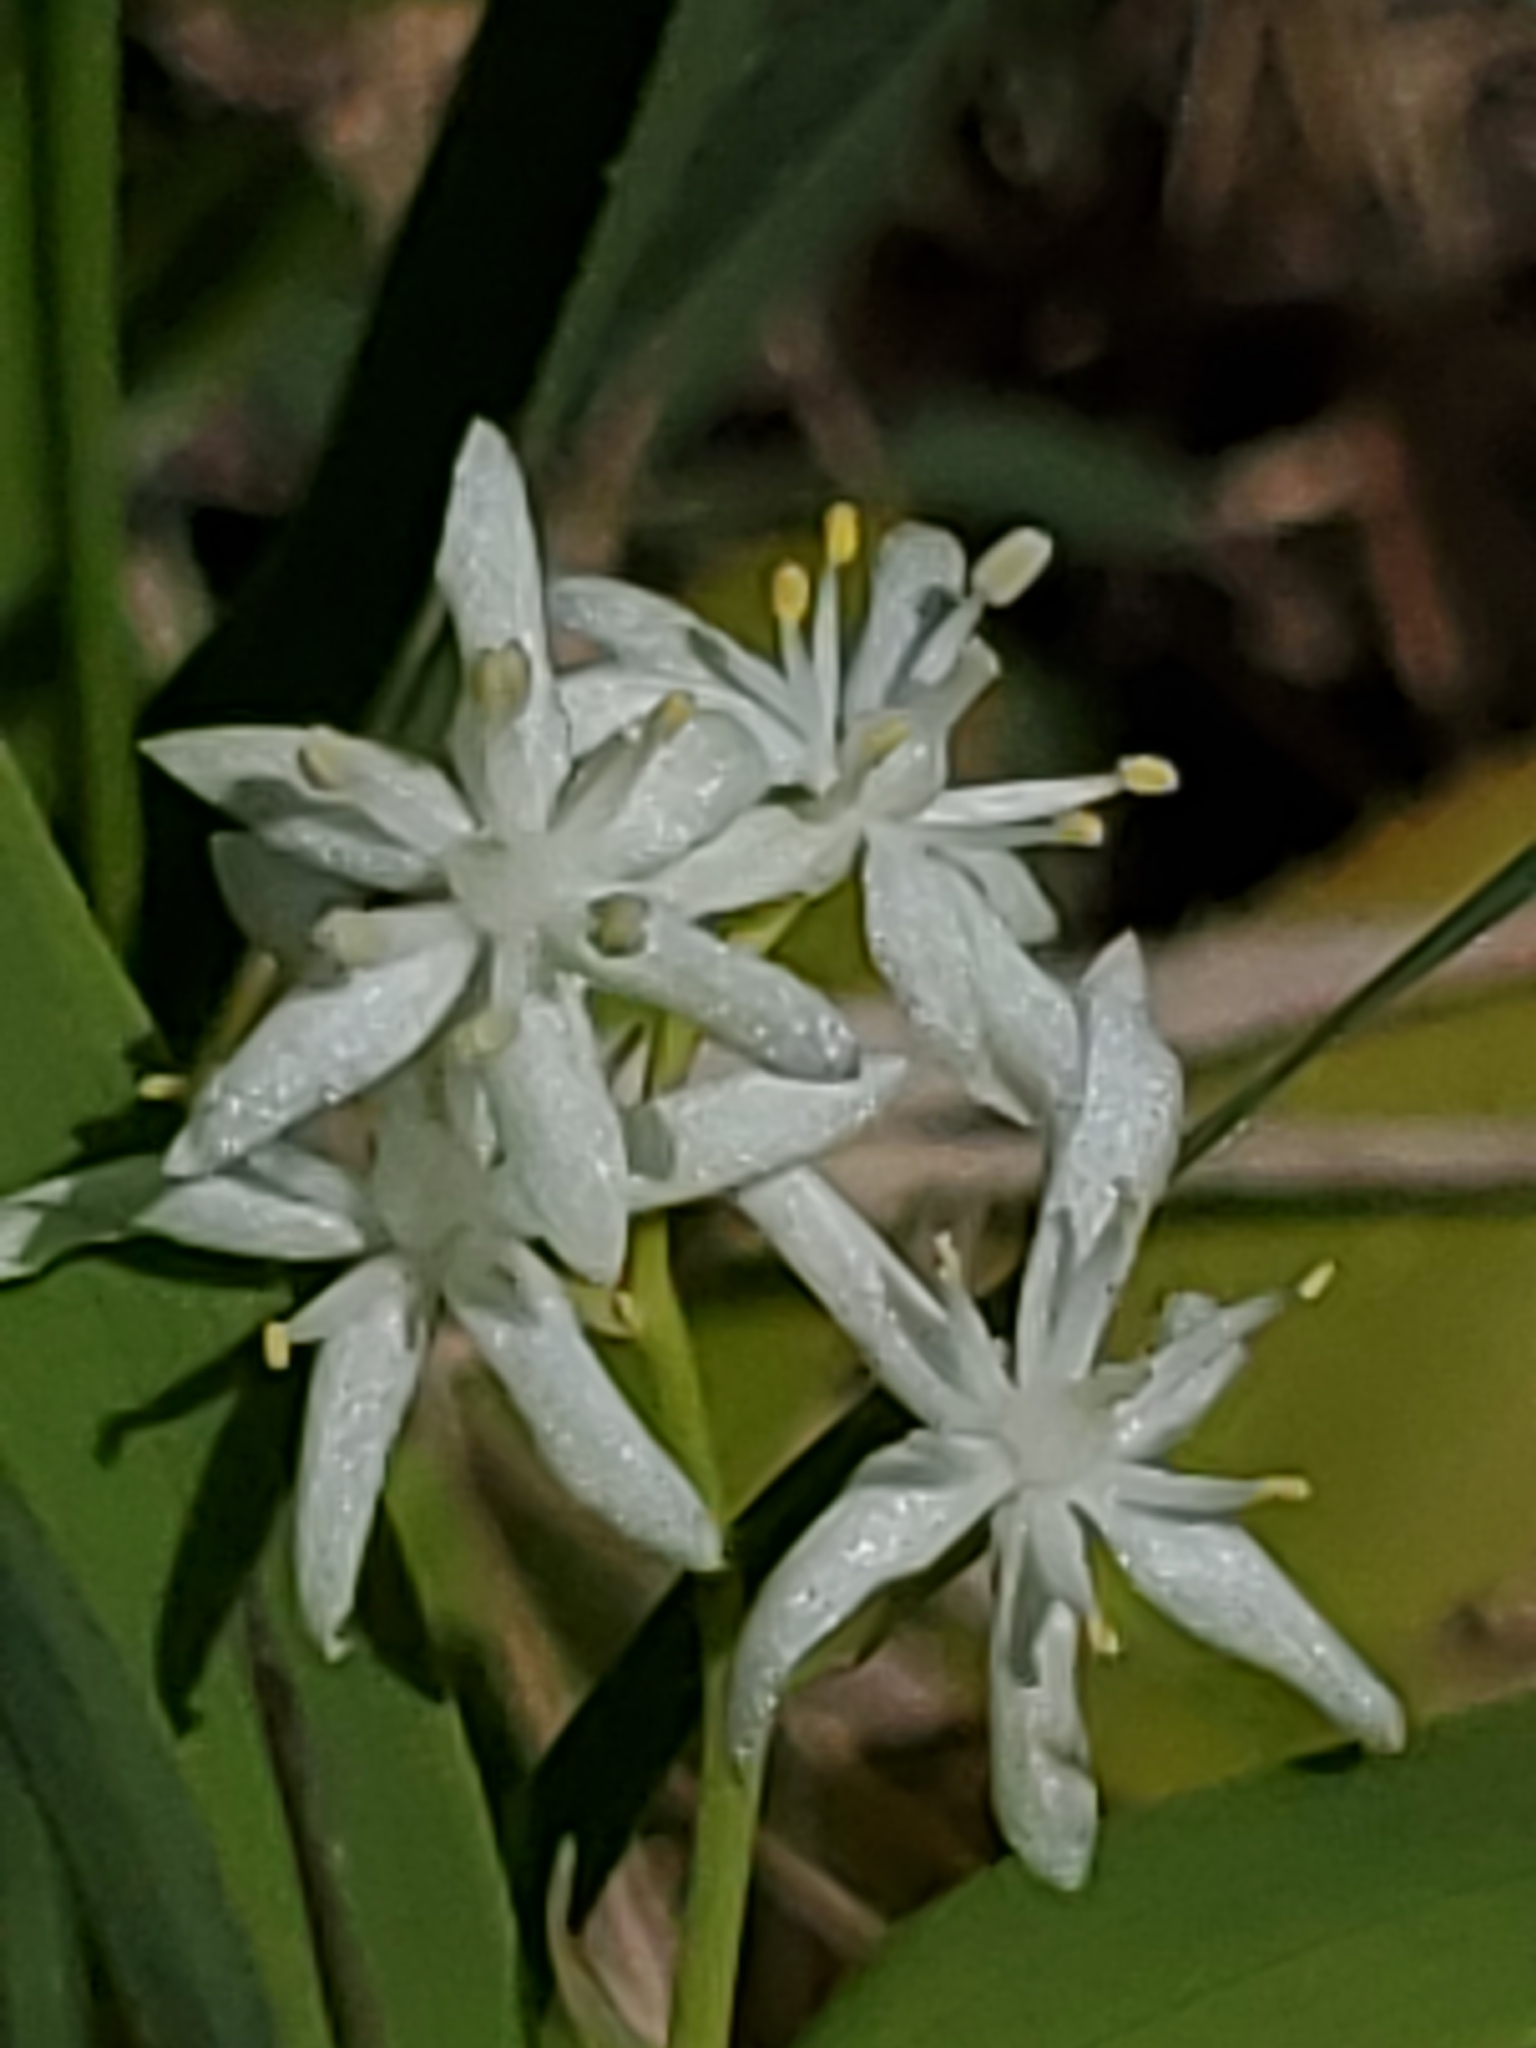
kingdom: Plantae
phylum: Tracheophyta
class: Liliopsida
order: Asparagales
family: Asparagaceae
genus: Maianthemum
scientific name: Maianthemum stellatum
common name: Little false solomon's seal
